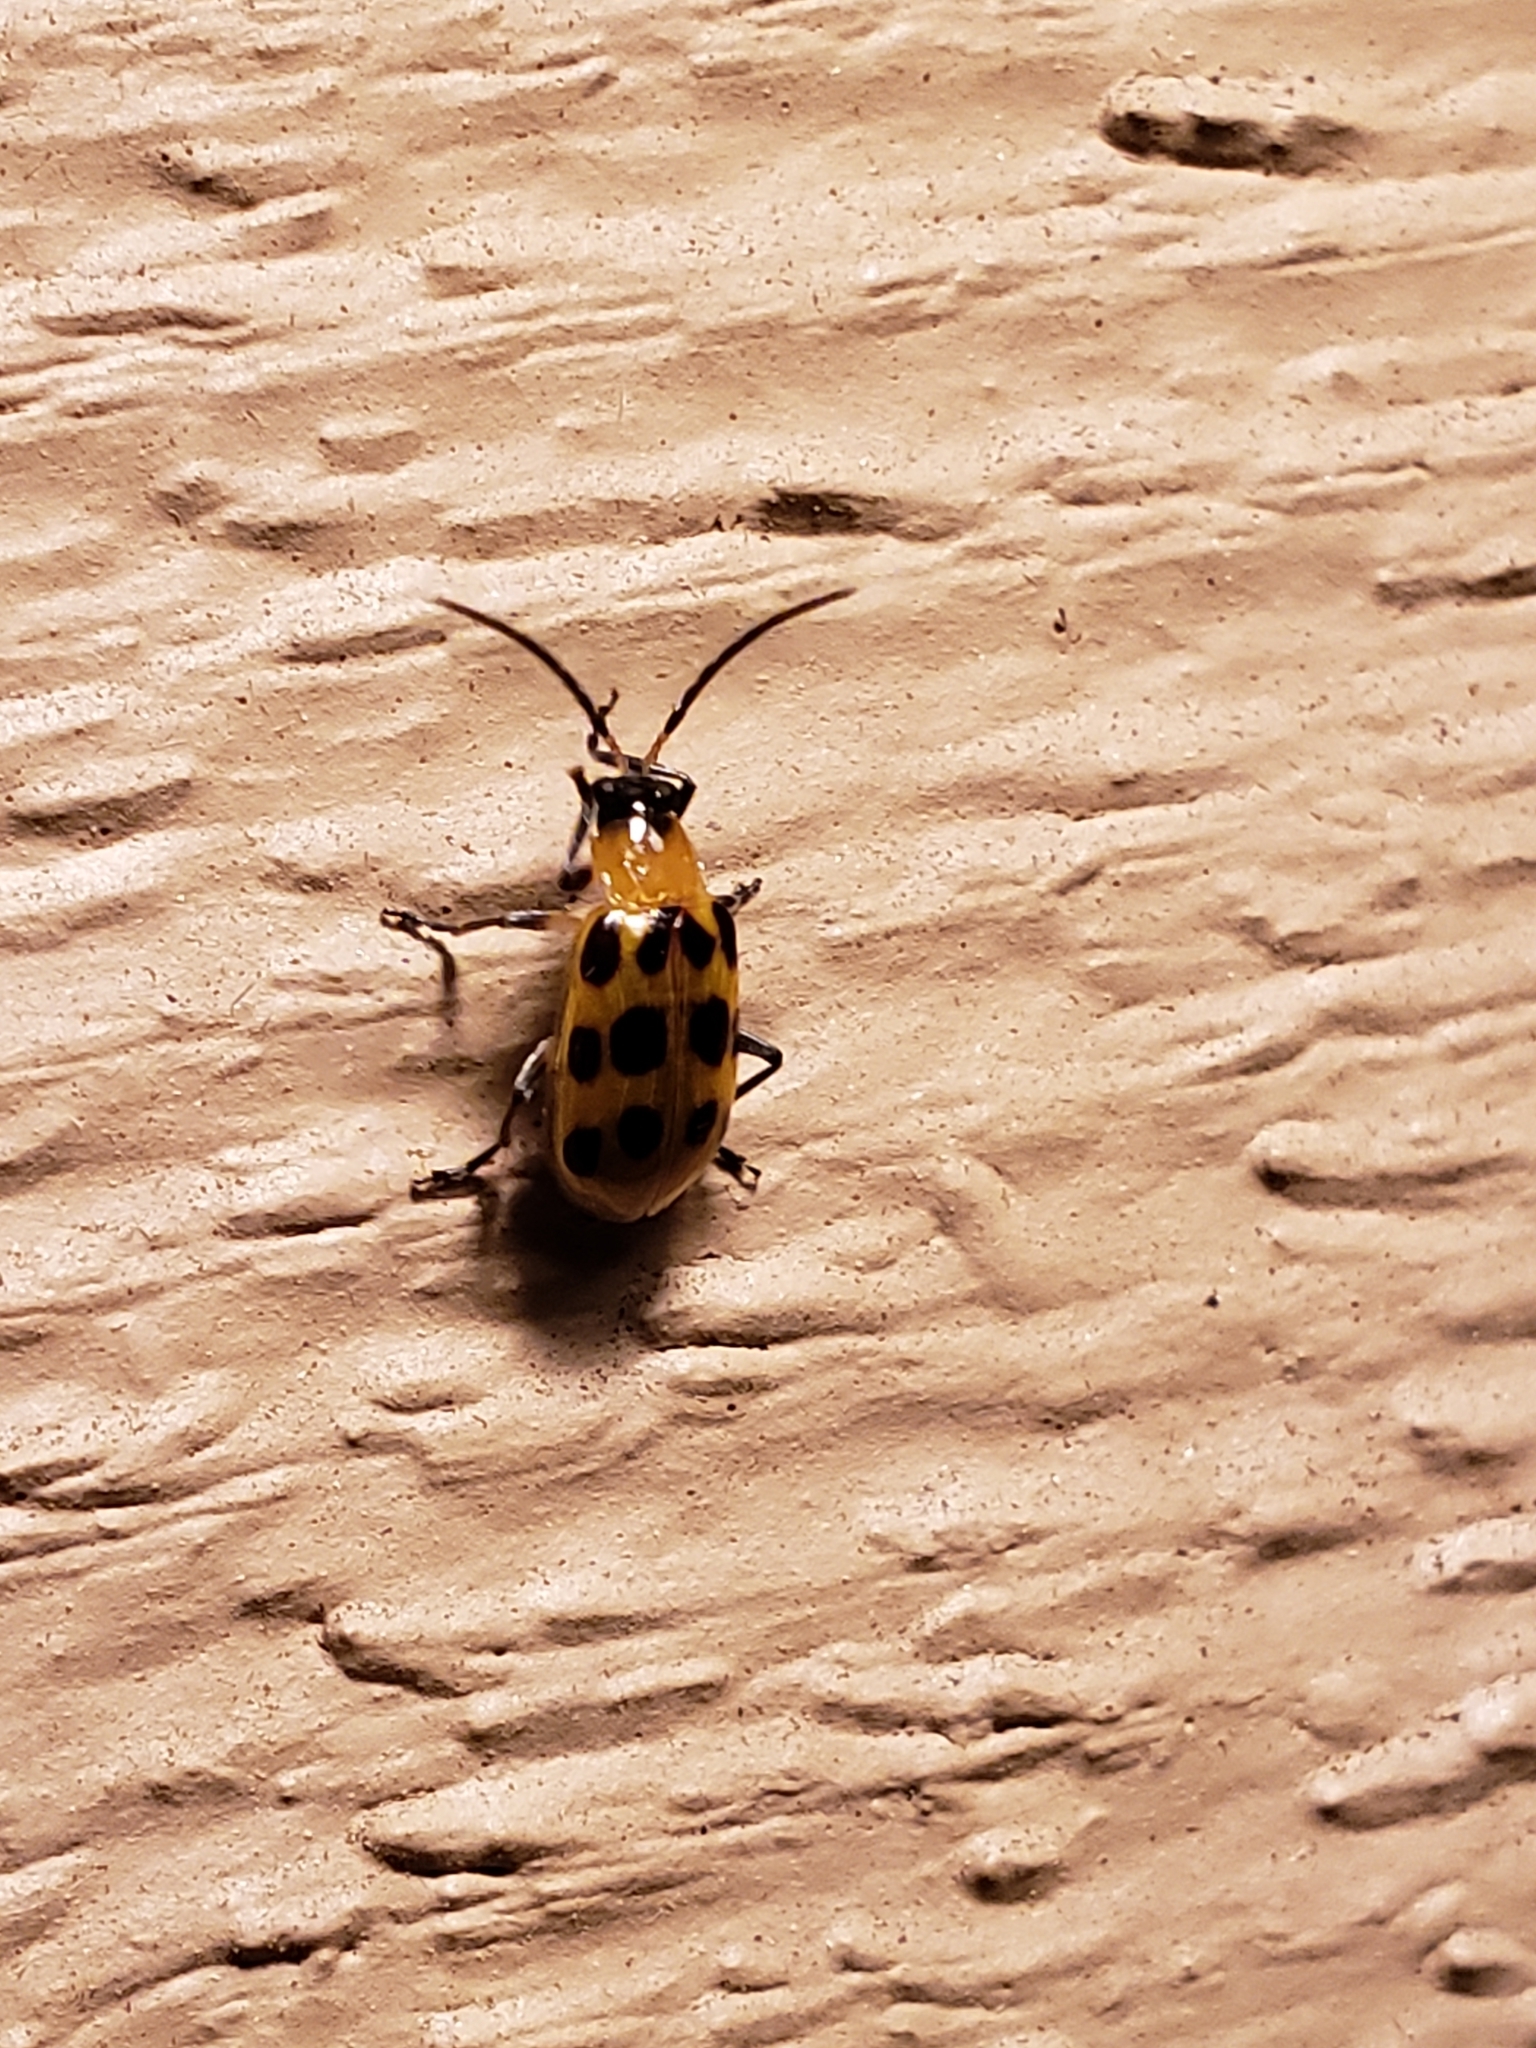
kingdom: Animalia
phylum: Arthropoda
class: Insecta
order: Coleoptera
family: Chrysomelidae
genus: Diabrotica
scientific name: Diabrotica undecimpunctata
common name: Spotted cucumber beetle
